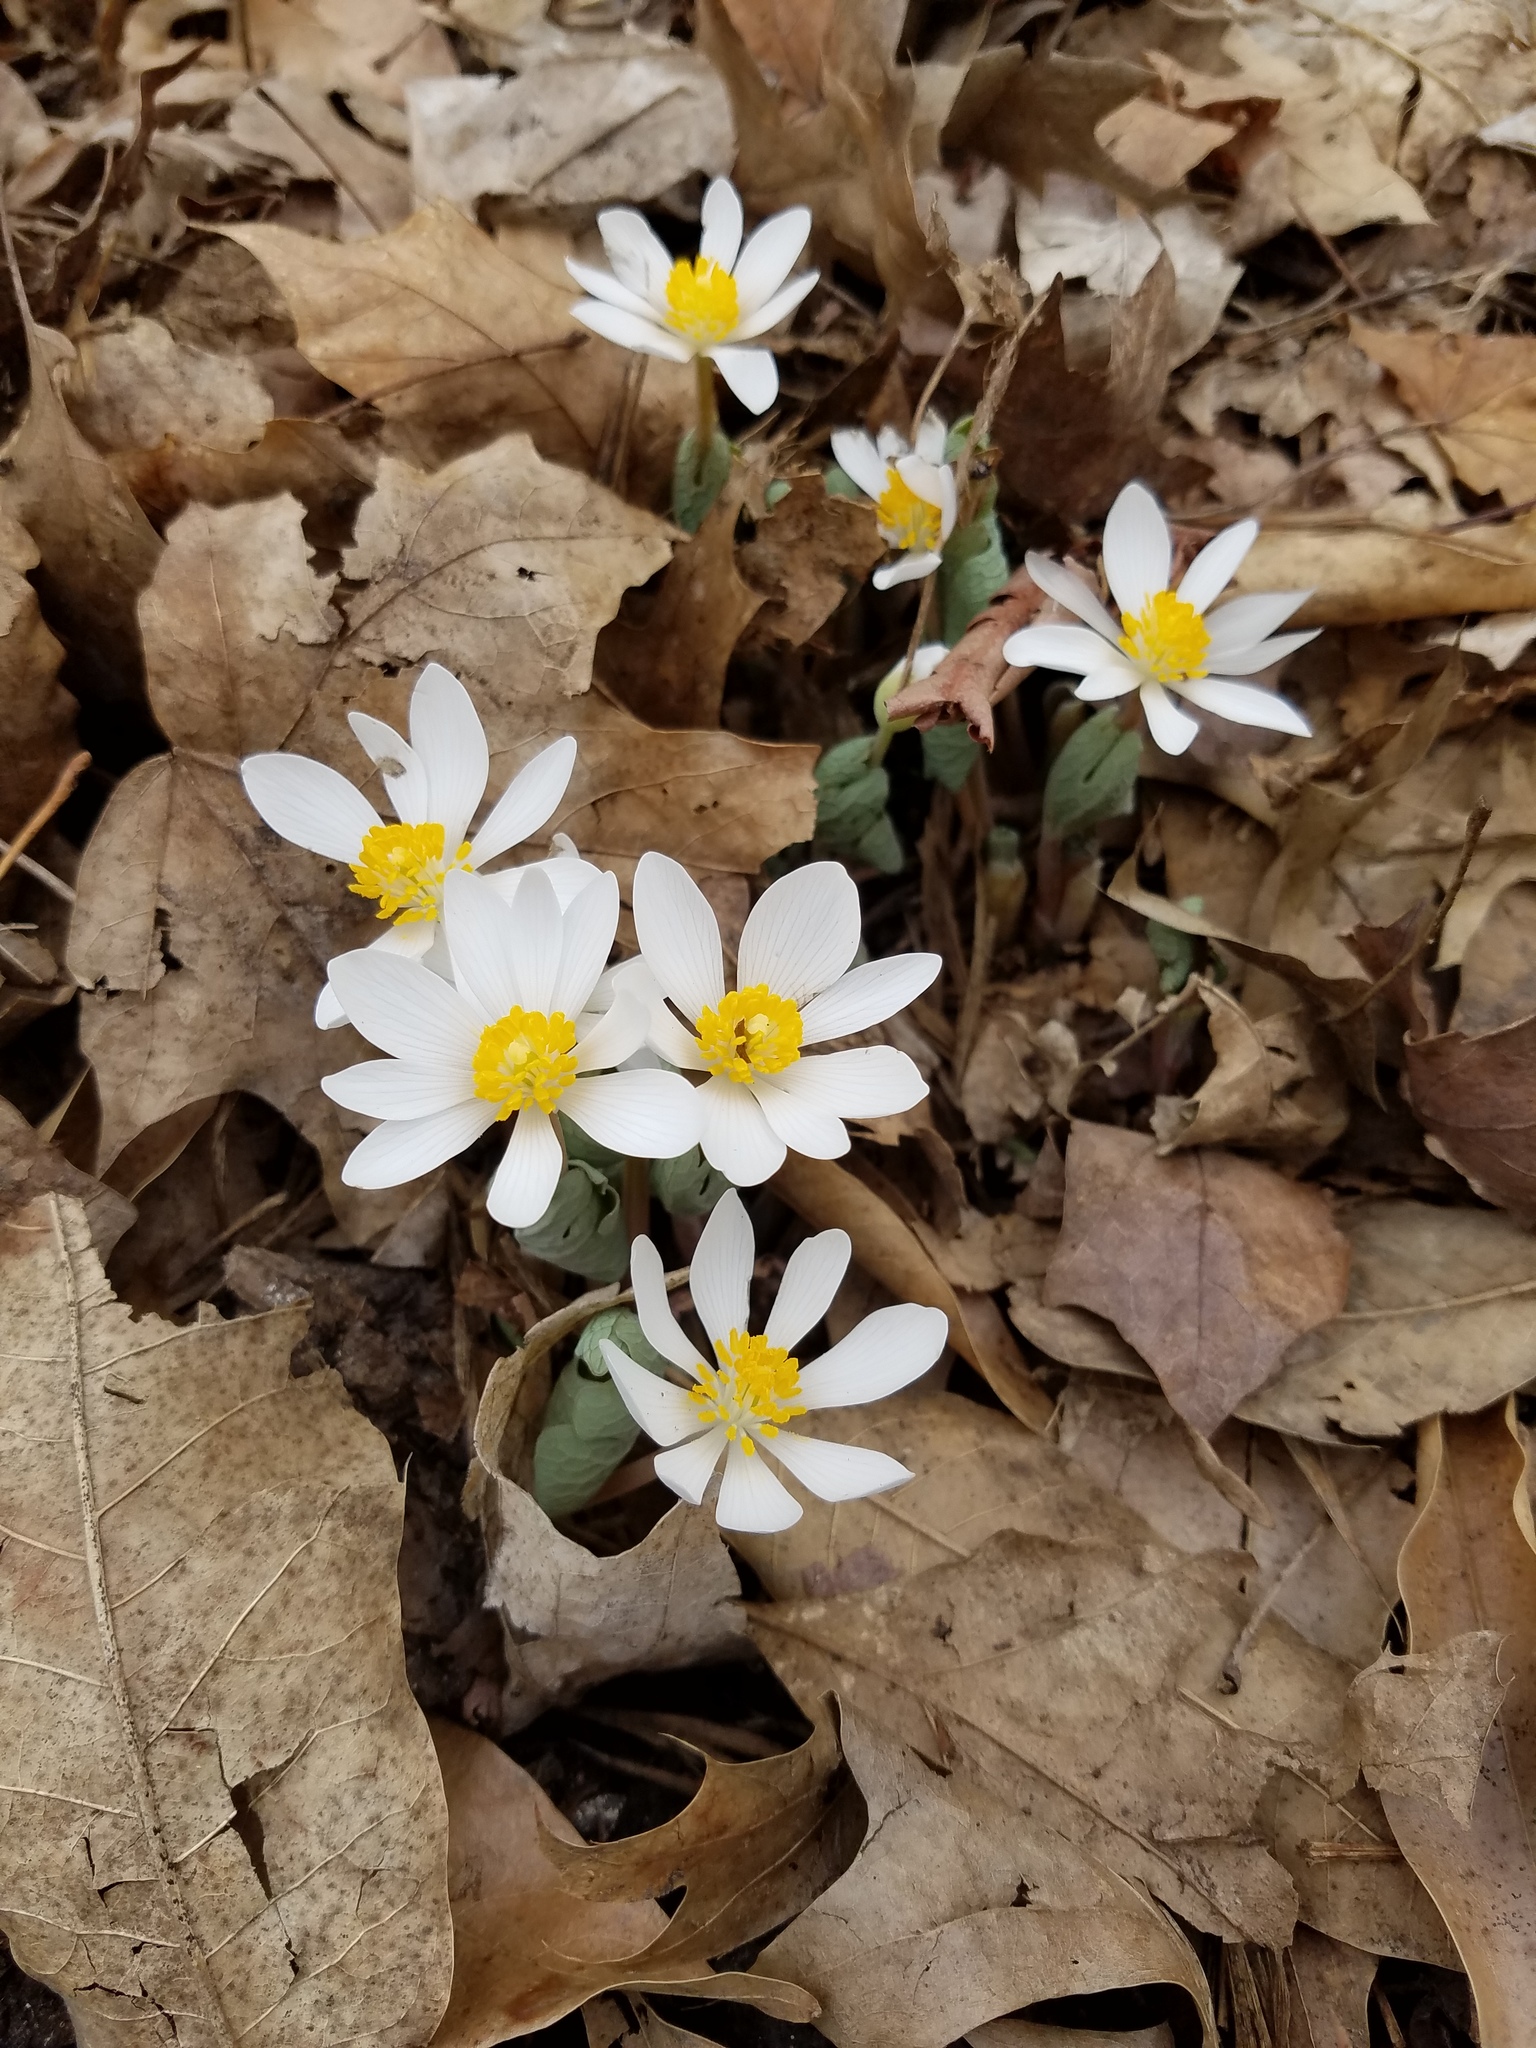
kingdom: Plantae
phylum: Tracheophyta
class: Magnoliopsida
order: Ranunculales
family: Papaveraceae
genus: Sanguinaria
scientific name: Sanguinaria canadensis
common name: Bloodroot
